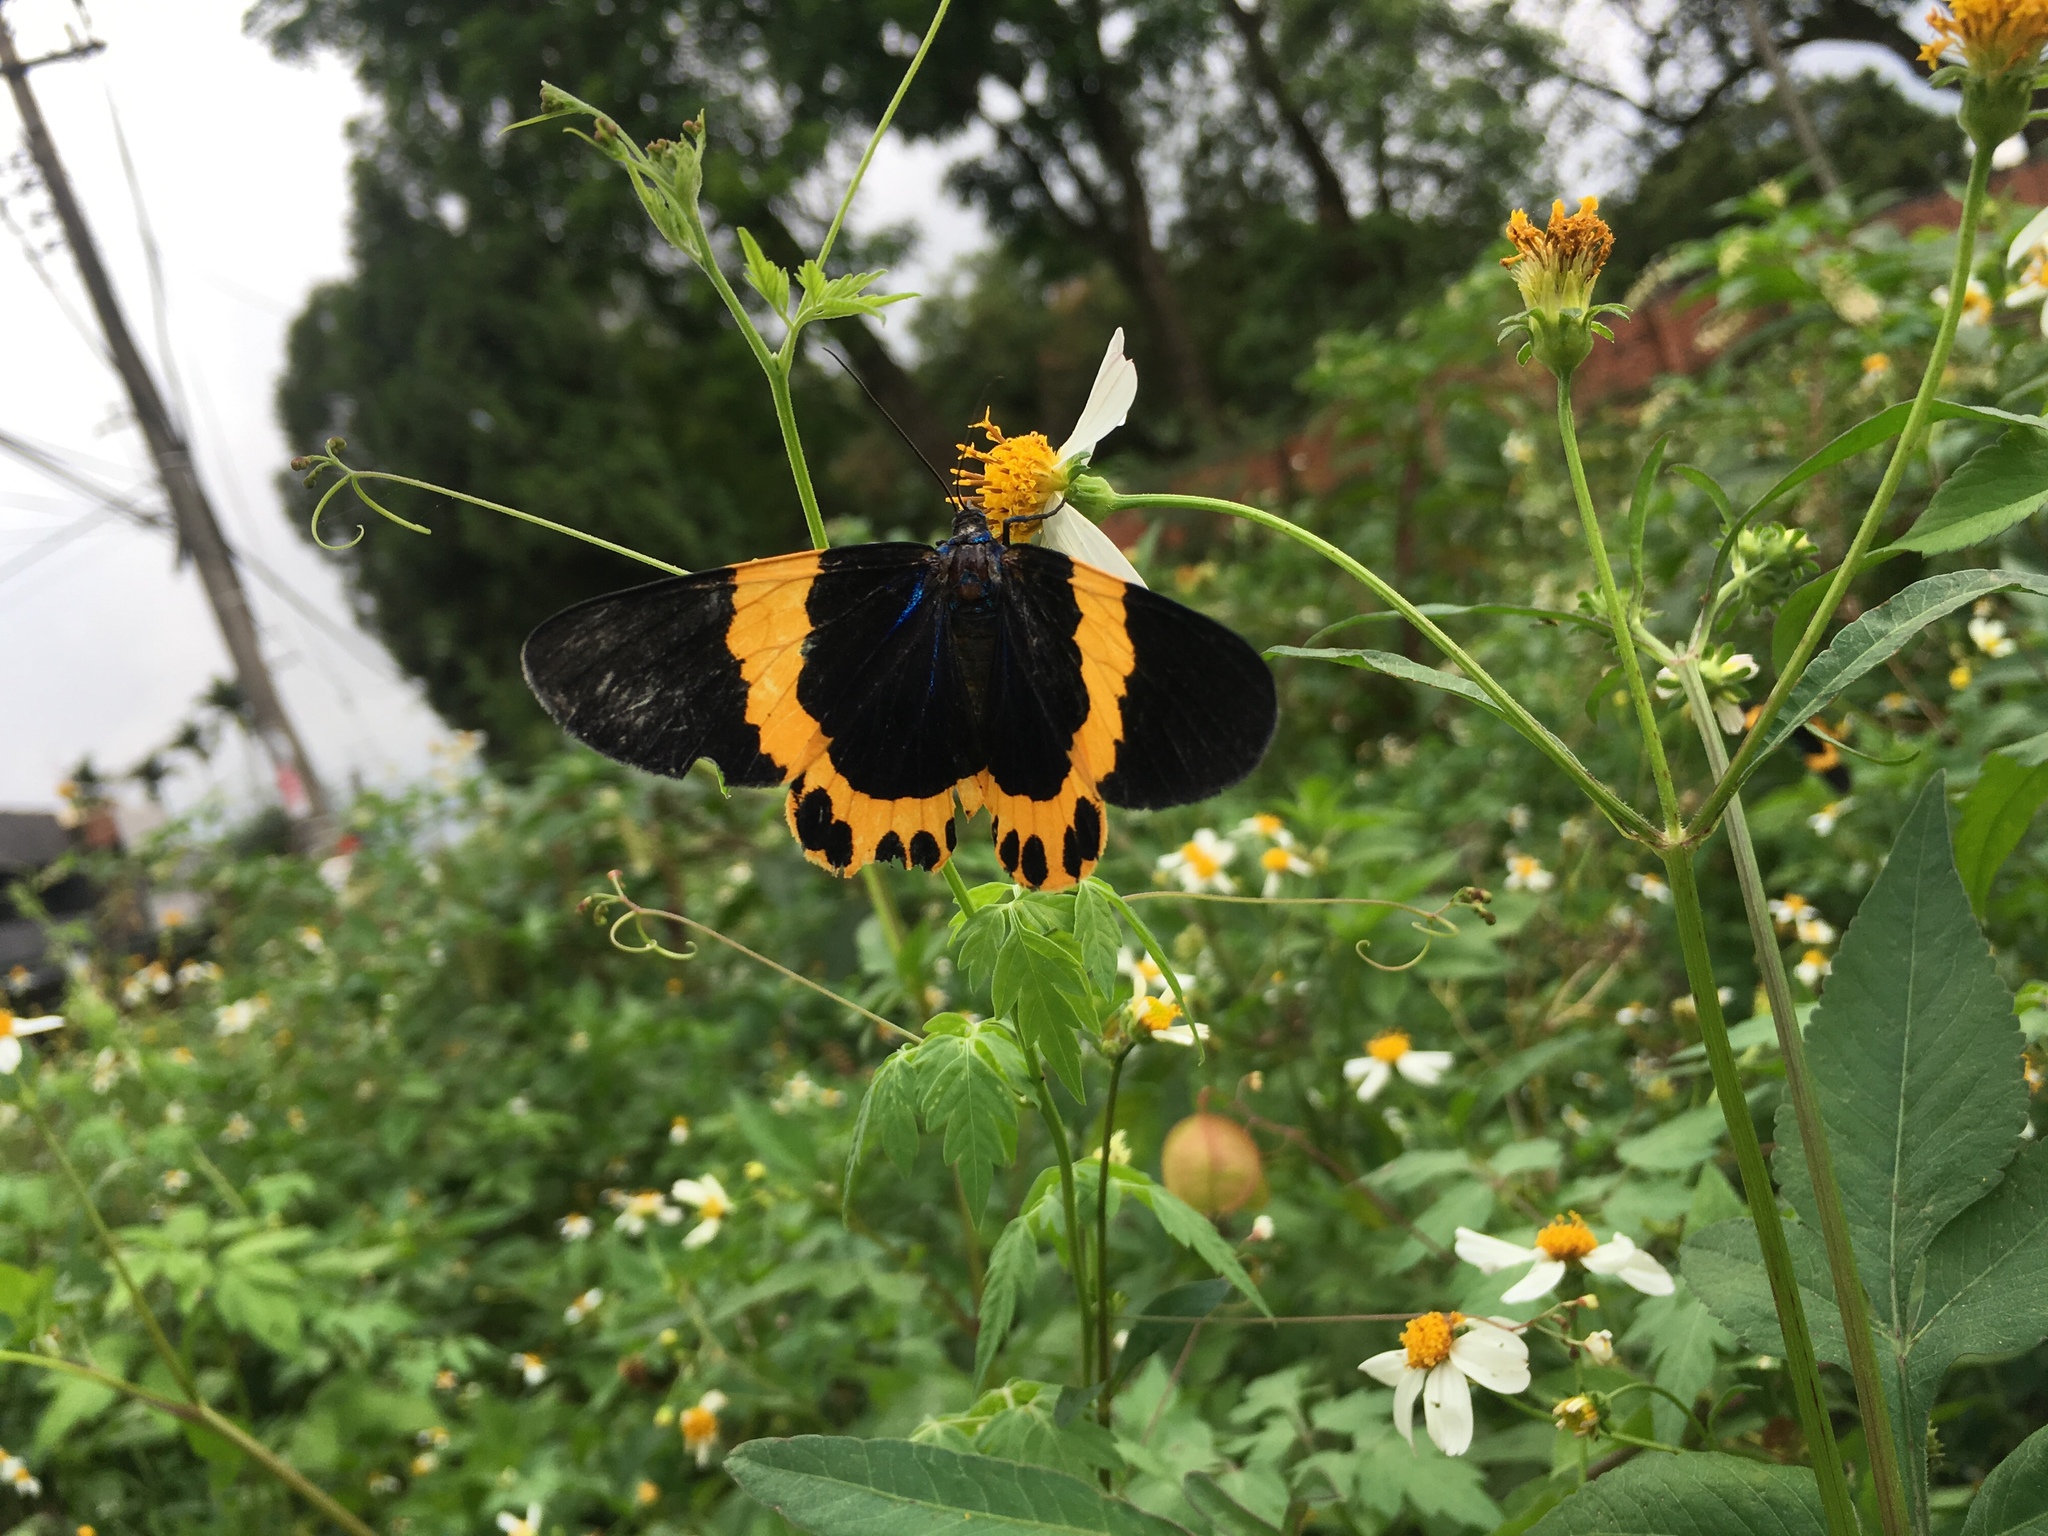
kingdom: Animalia
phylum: Arthropoda
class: Insecta
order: Lepidoptera
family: Geometridae
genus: Milionia
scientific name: Milionia basalis
